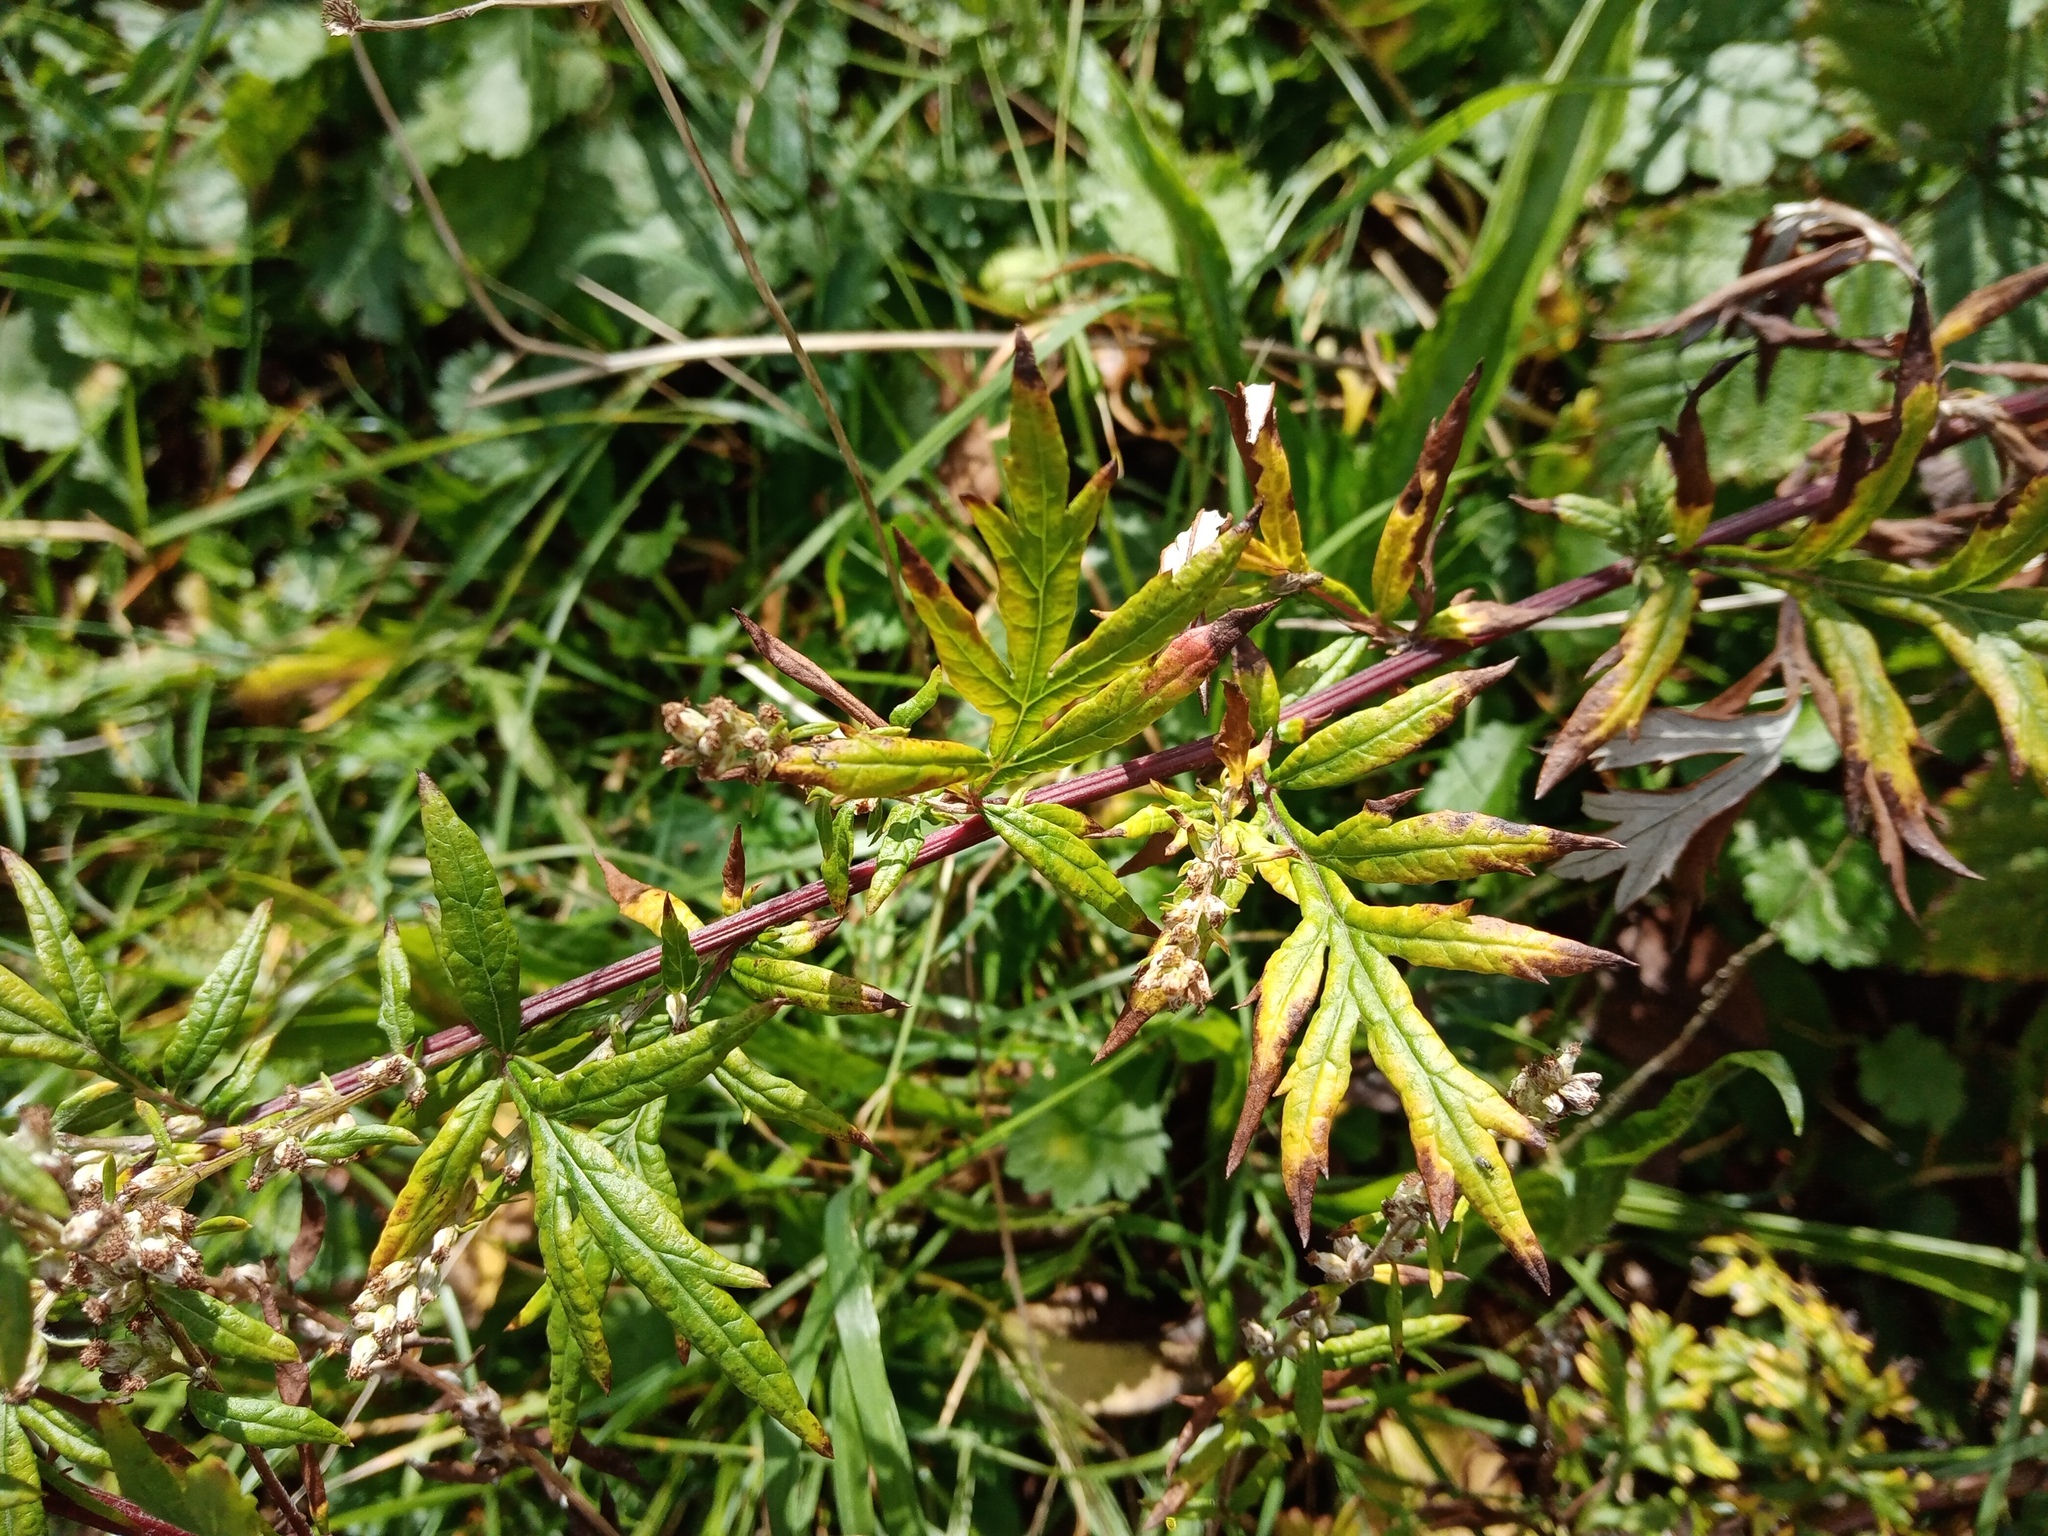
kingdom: Plantae
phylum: Tracheophyta
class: Magnoliopsida
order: Asterales
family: Asteraceae
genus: Artemisia
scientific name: Artemisia vulgaris
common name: Mugwort
